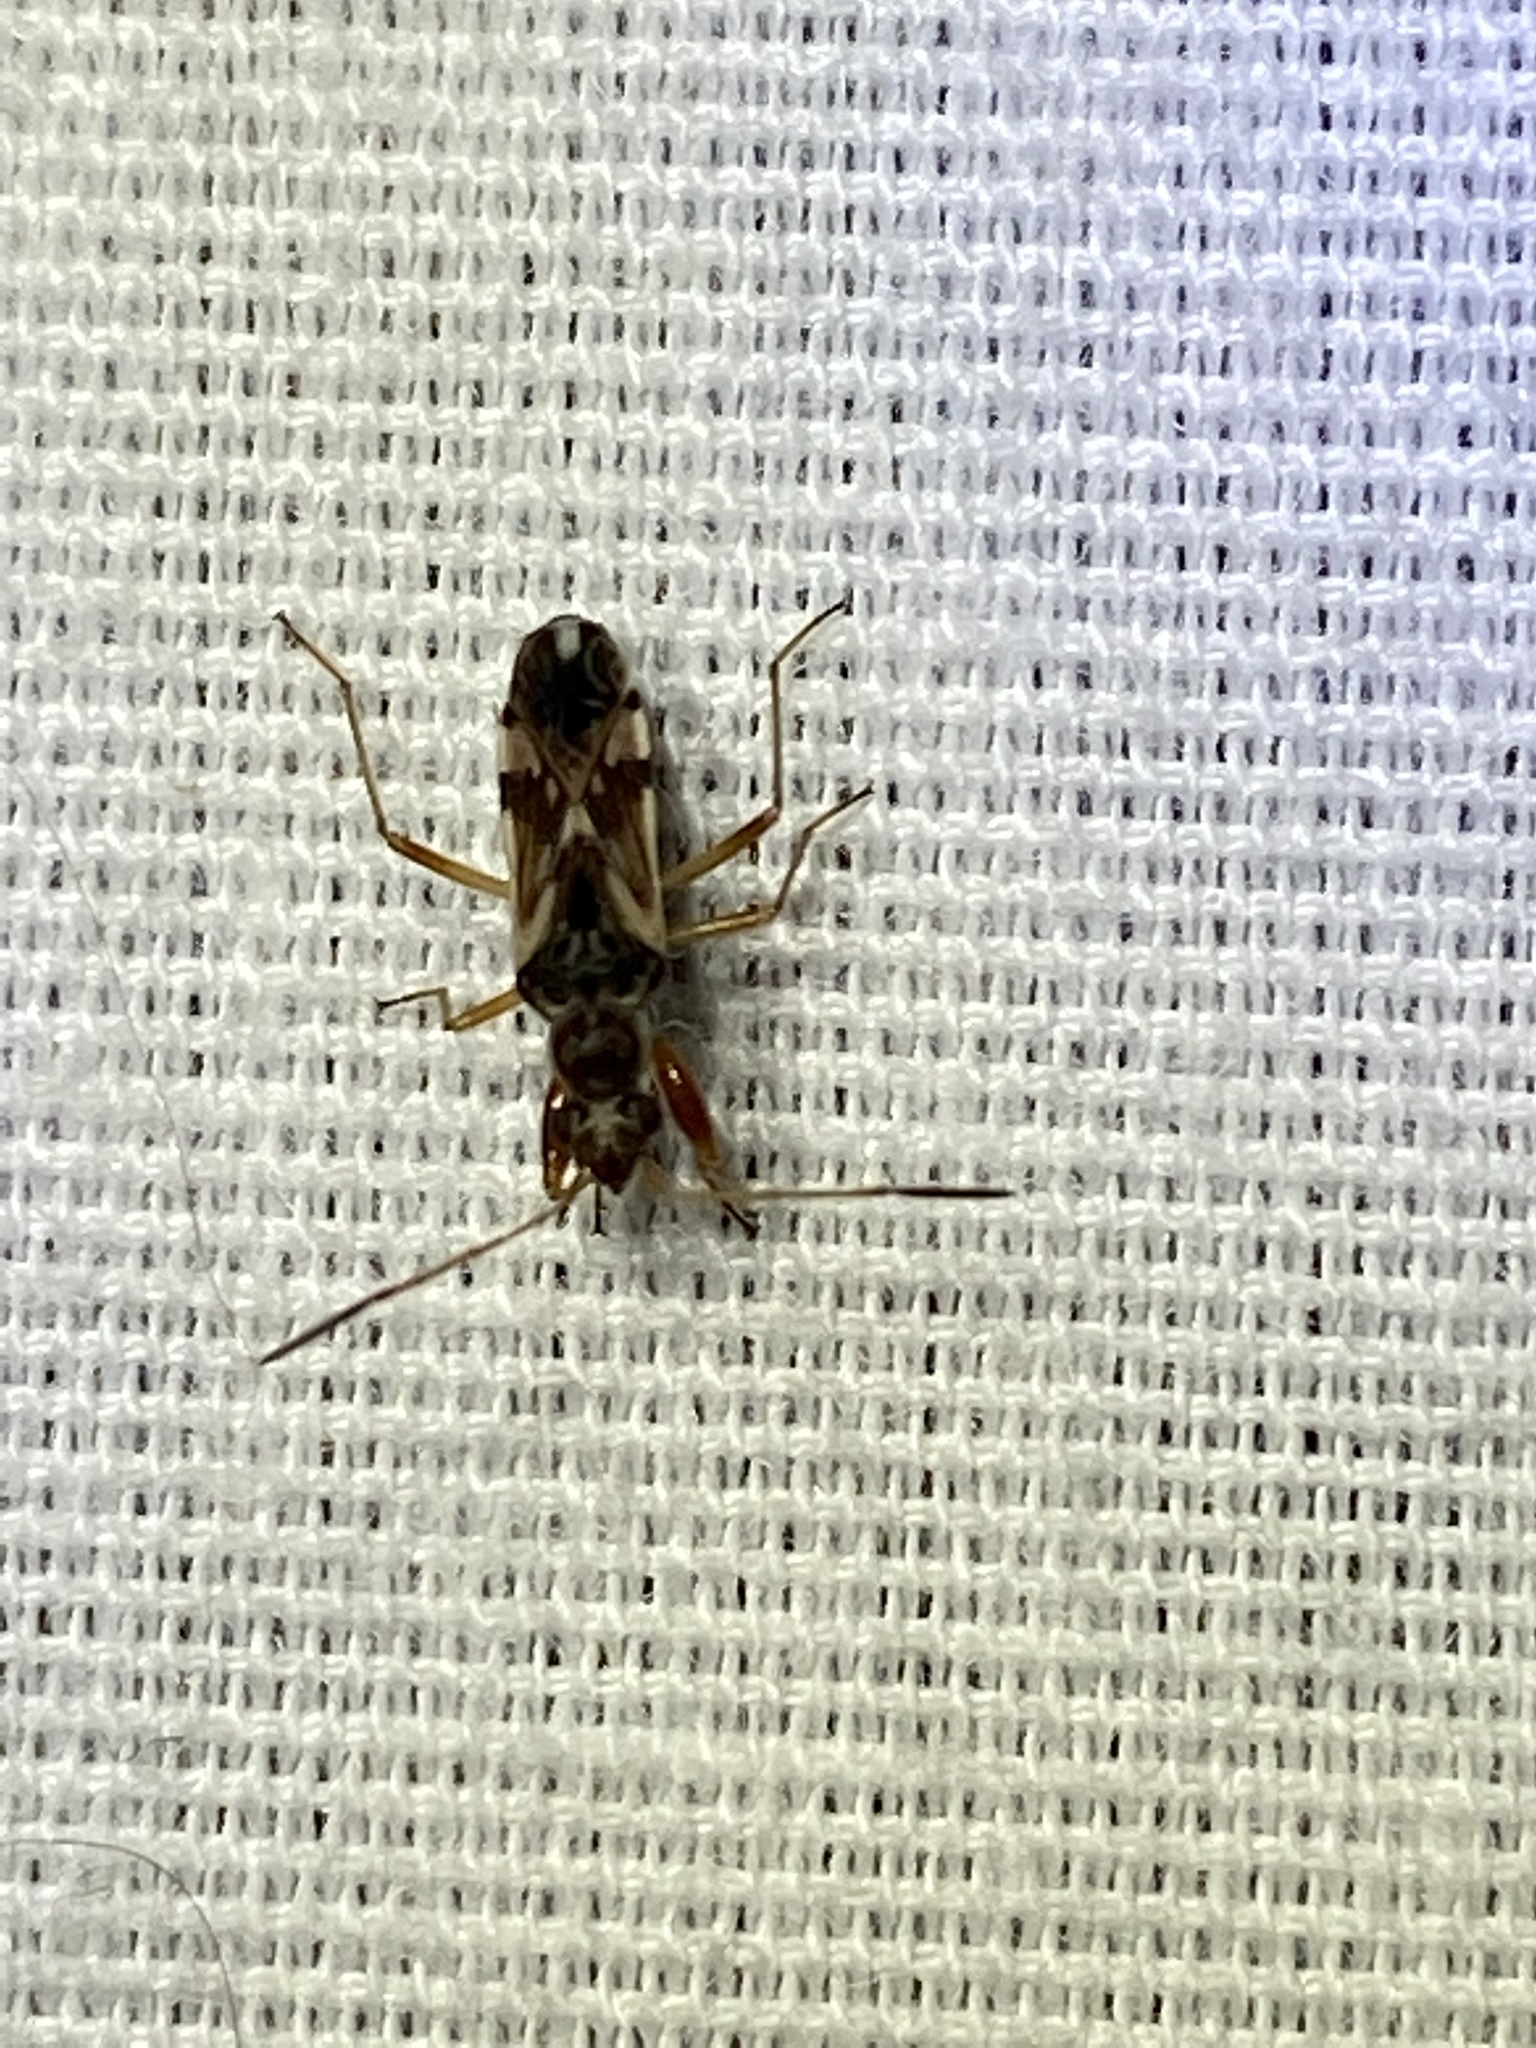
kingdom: Animalia
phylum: Arthropoda
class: Insecta
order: Hemiptera
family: Rhyparochromidae
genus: Neopamera
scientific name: Neopamera bilobata
